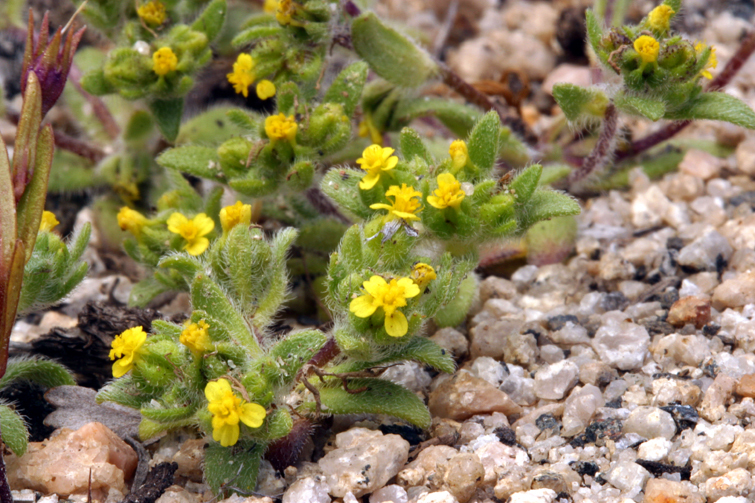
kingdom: Plantae
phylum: Tracheophyta
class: Magnoliopsida
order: Asterales
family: Asteraceae
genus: Hemizonella
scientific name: Hemizonella minima
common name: Opposite-leaved tarweed
